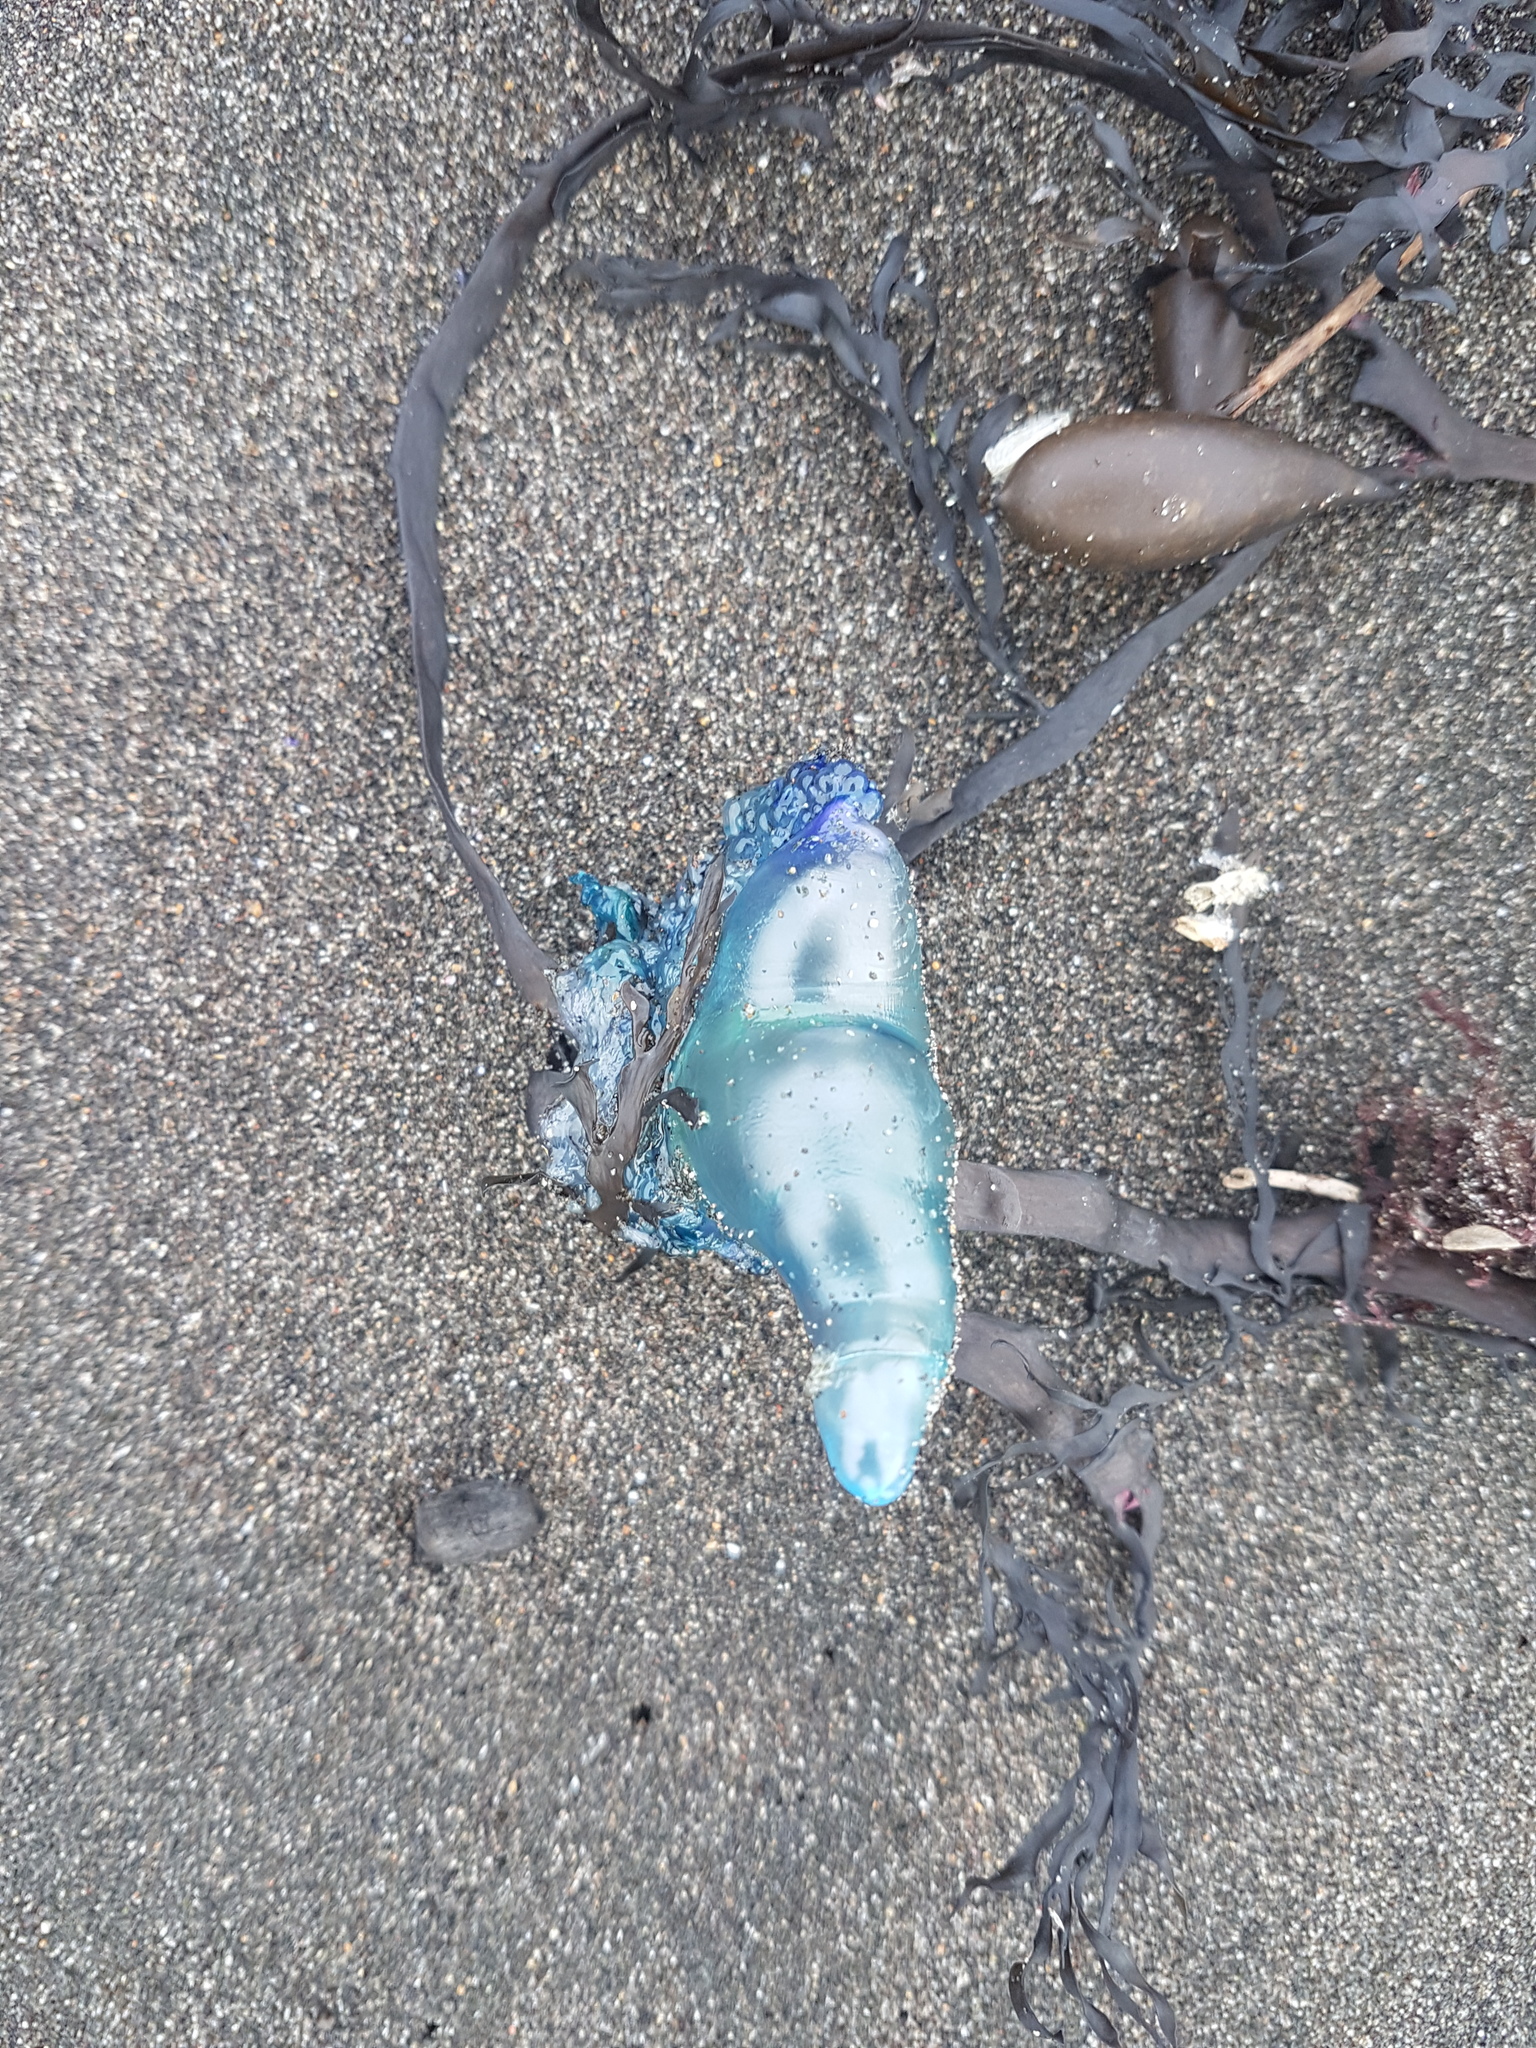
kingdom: Animalia
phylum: Cnidaria
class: Hydrozoa
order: Siphonophorae
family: Physaliidae
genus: Physalia
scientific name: Physalia physalis
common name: Portuguese man-of-war
